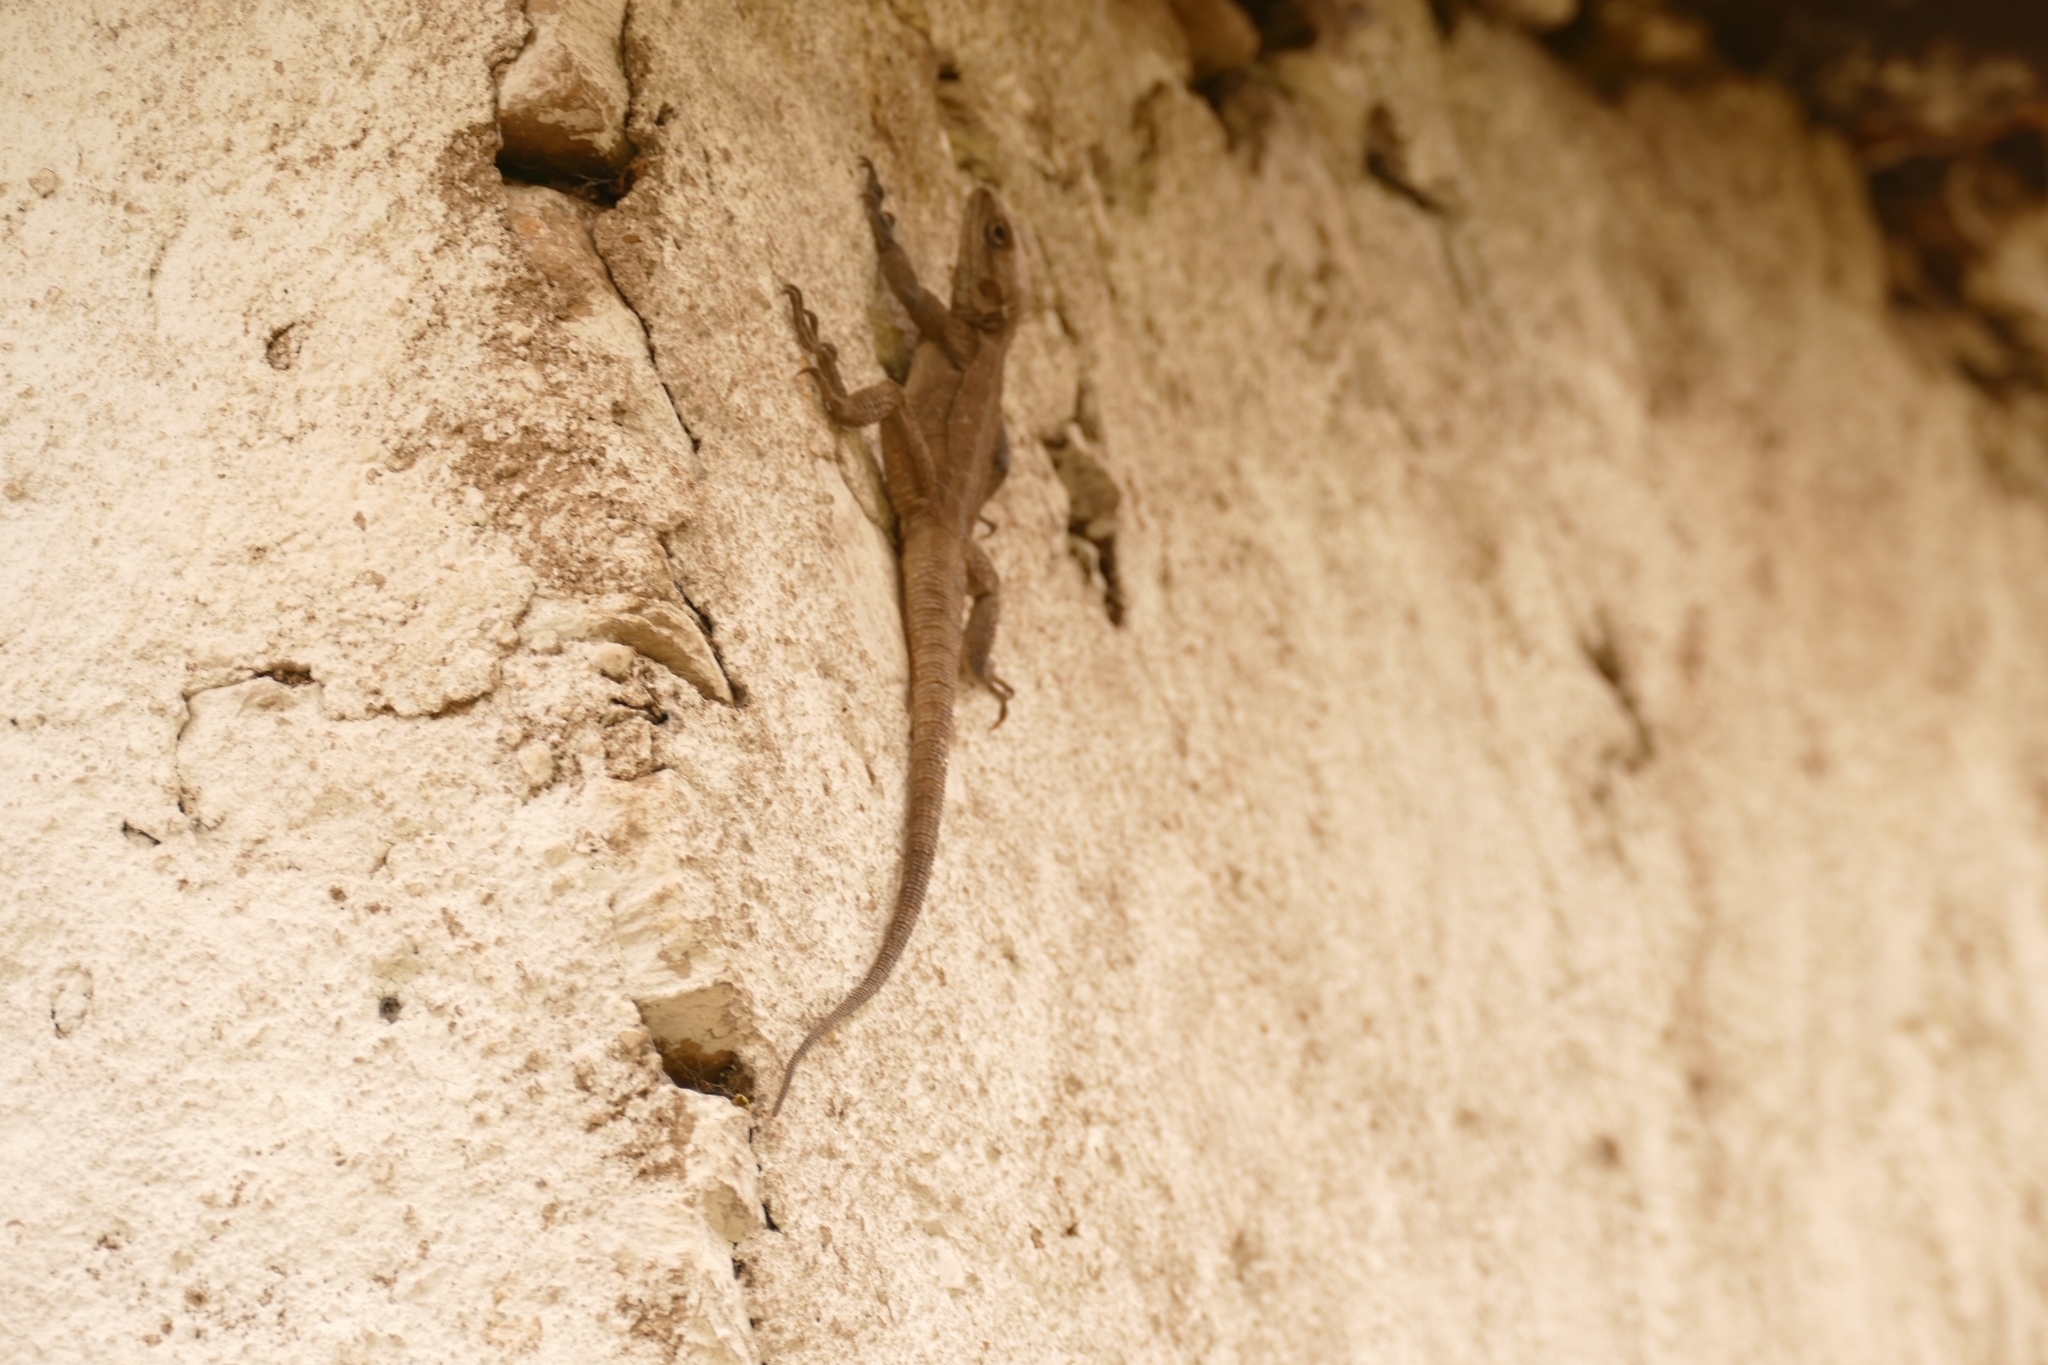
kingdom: Animalia
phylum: Chordata
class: Squamata
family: Agamidae
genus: Laudakia
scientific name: Laudakia tuberculata
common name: Kashmir rock agama
